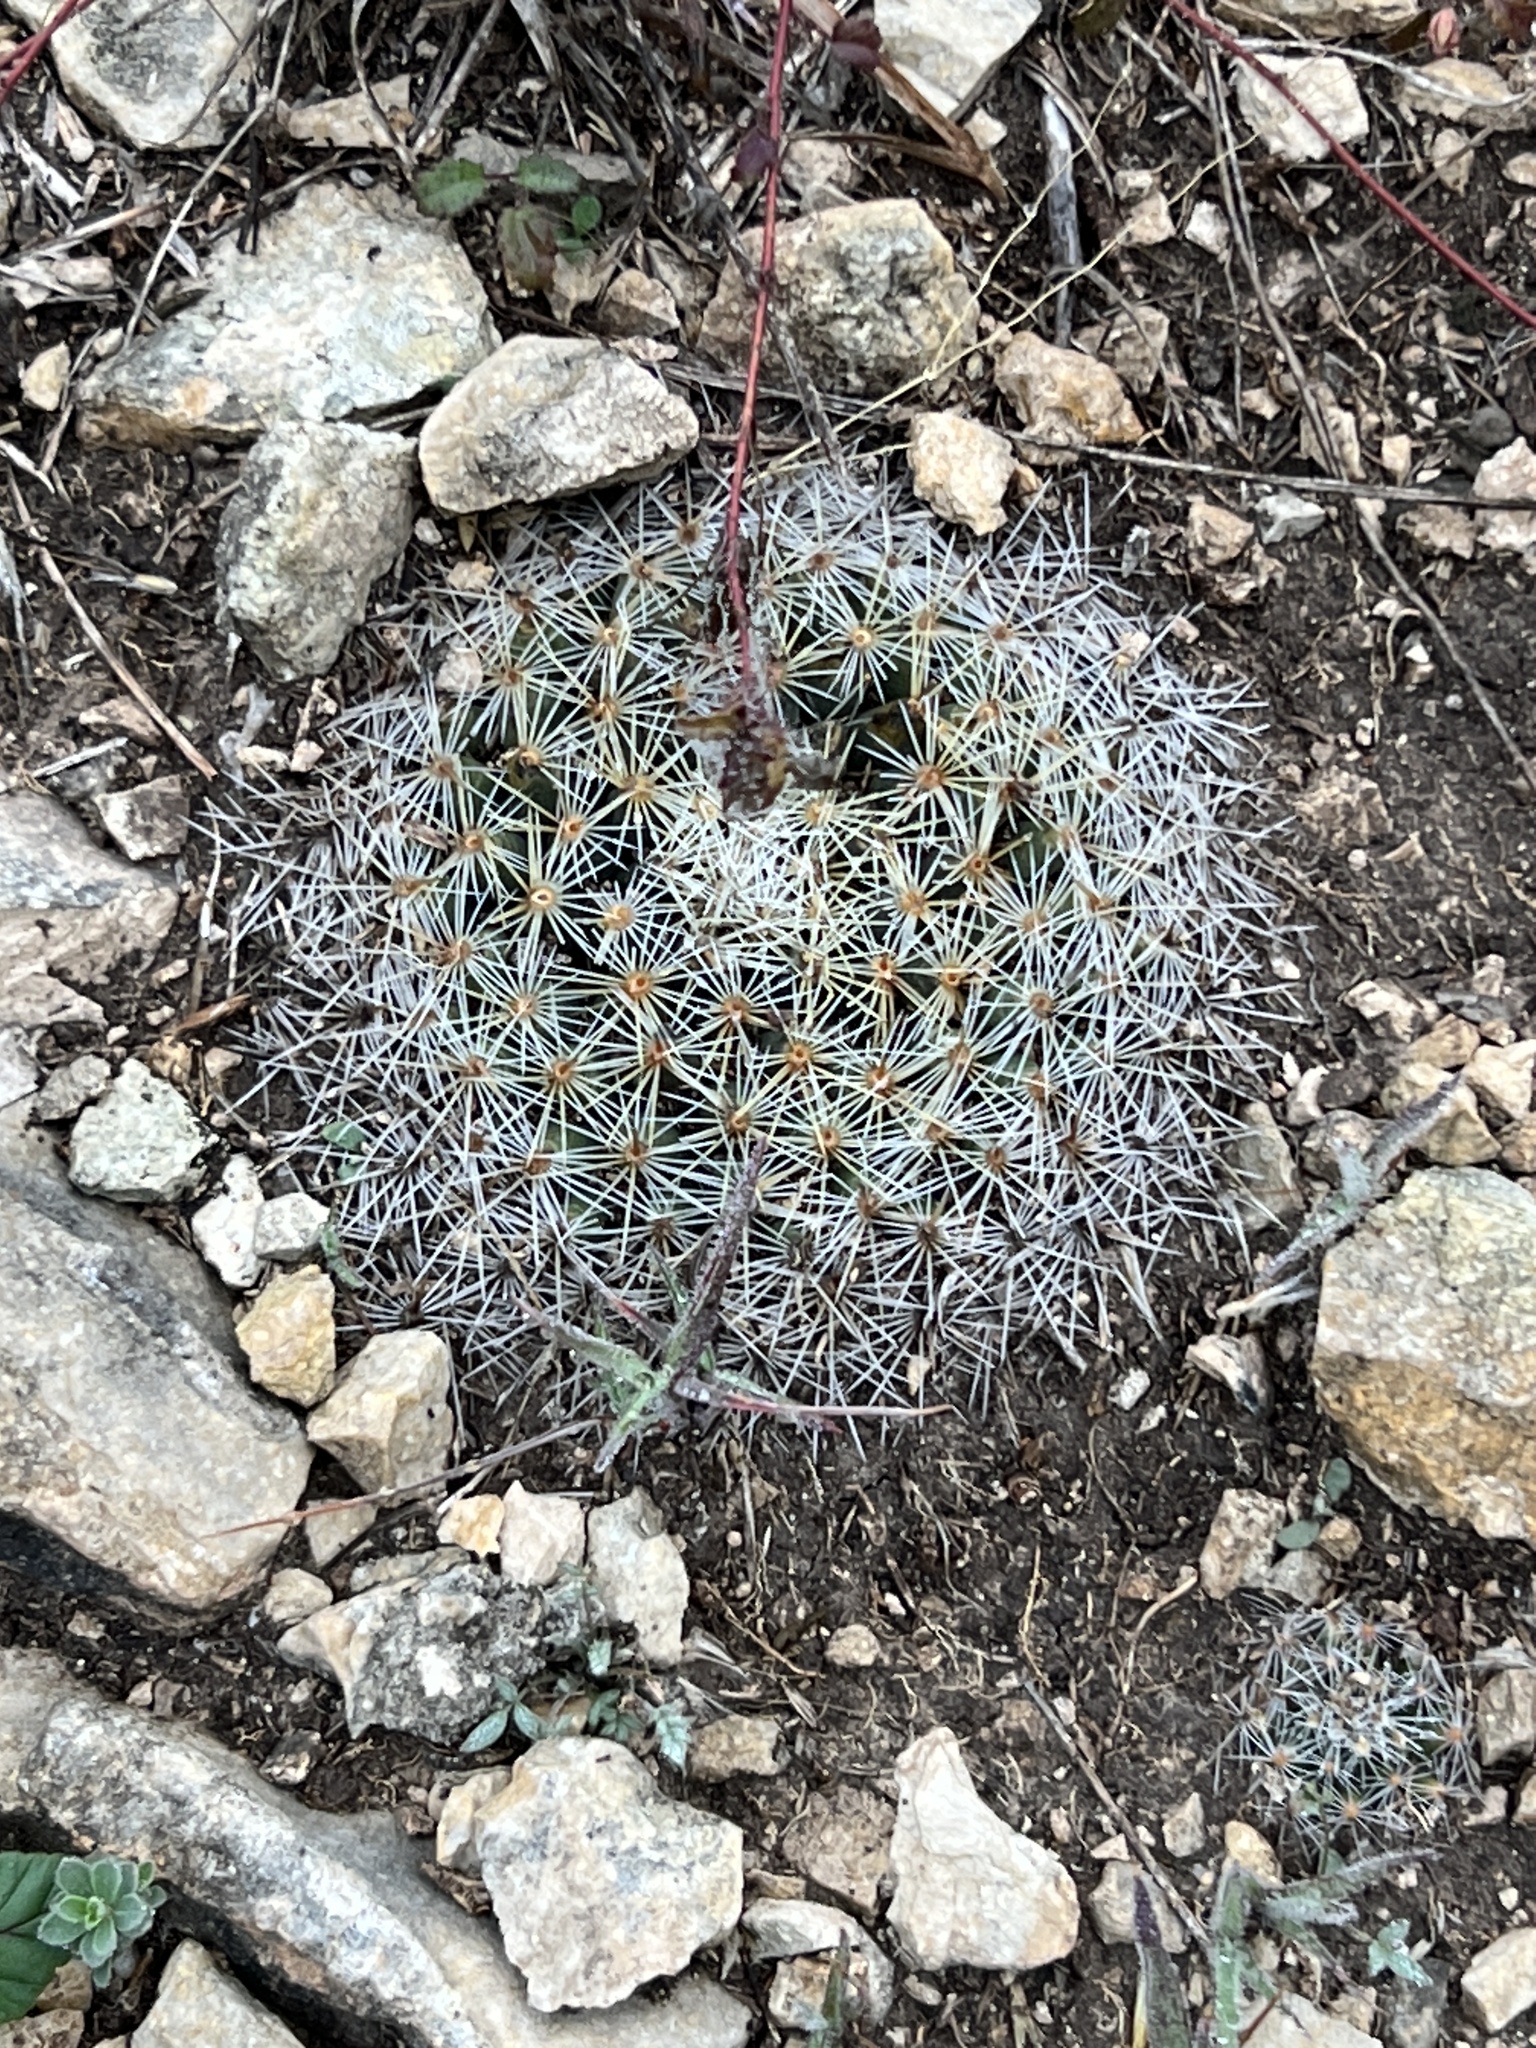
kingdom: Plantae
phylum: Tracheophyta
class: Magnoliopsida
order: Caryophyllales
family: Cactaceae
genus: Mammillaria
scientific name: Mammillaria heyderi
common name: Little nipple cactus
